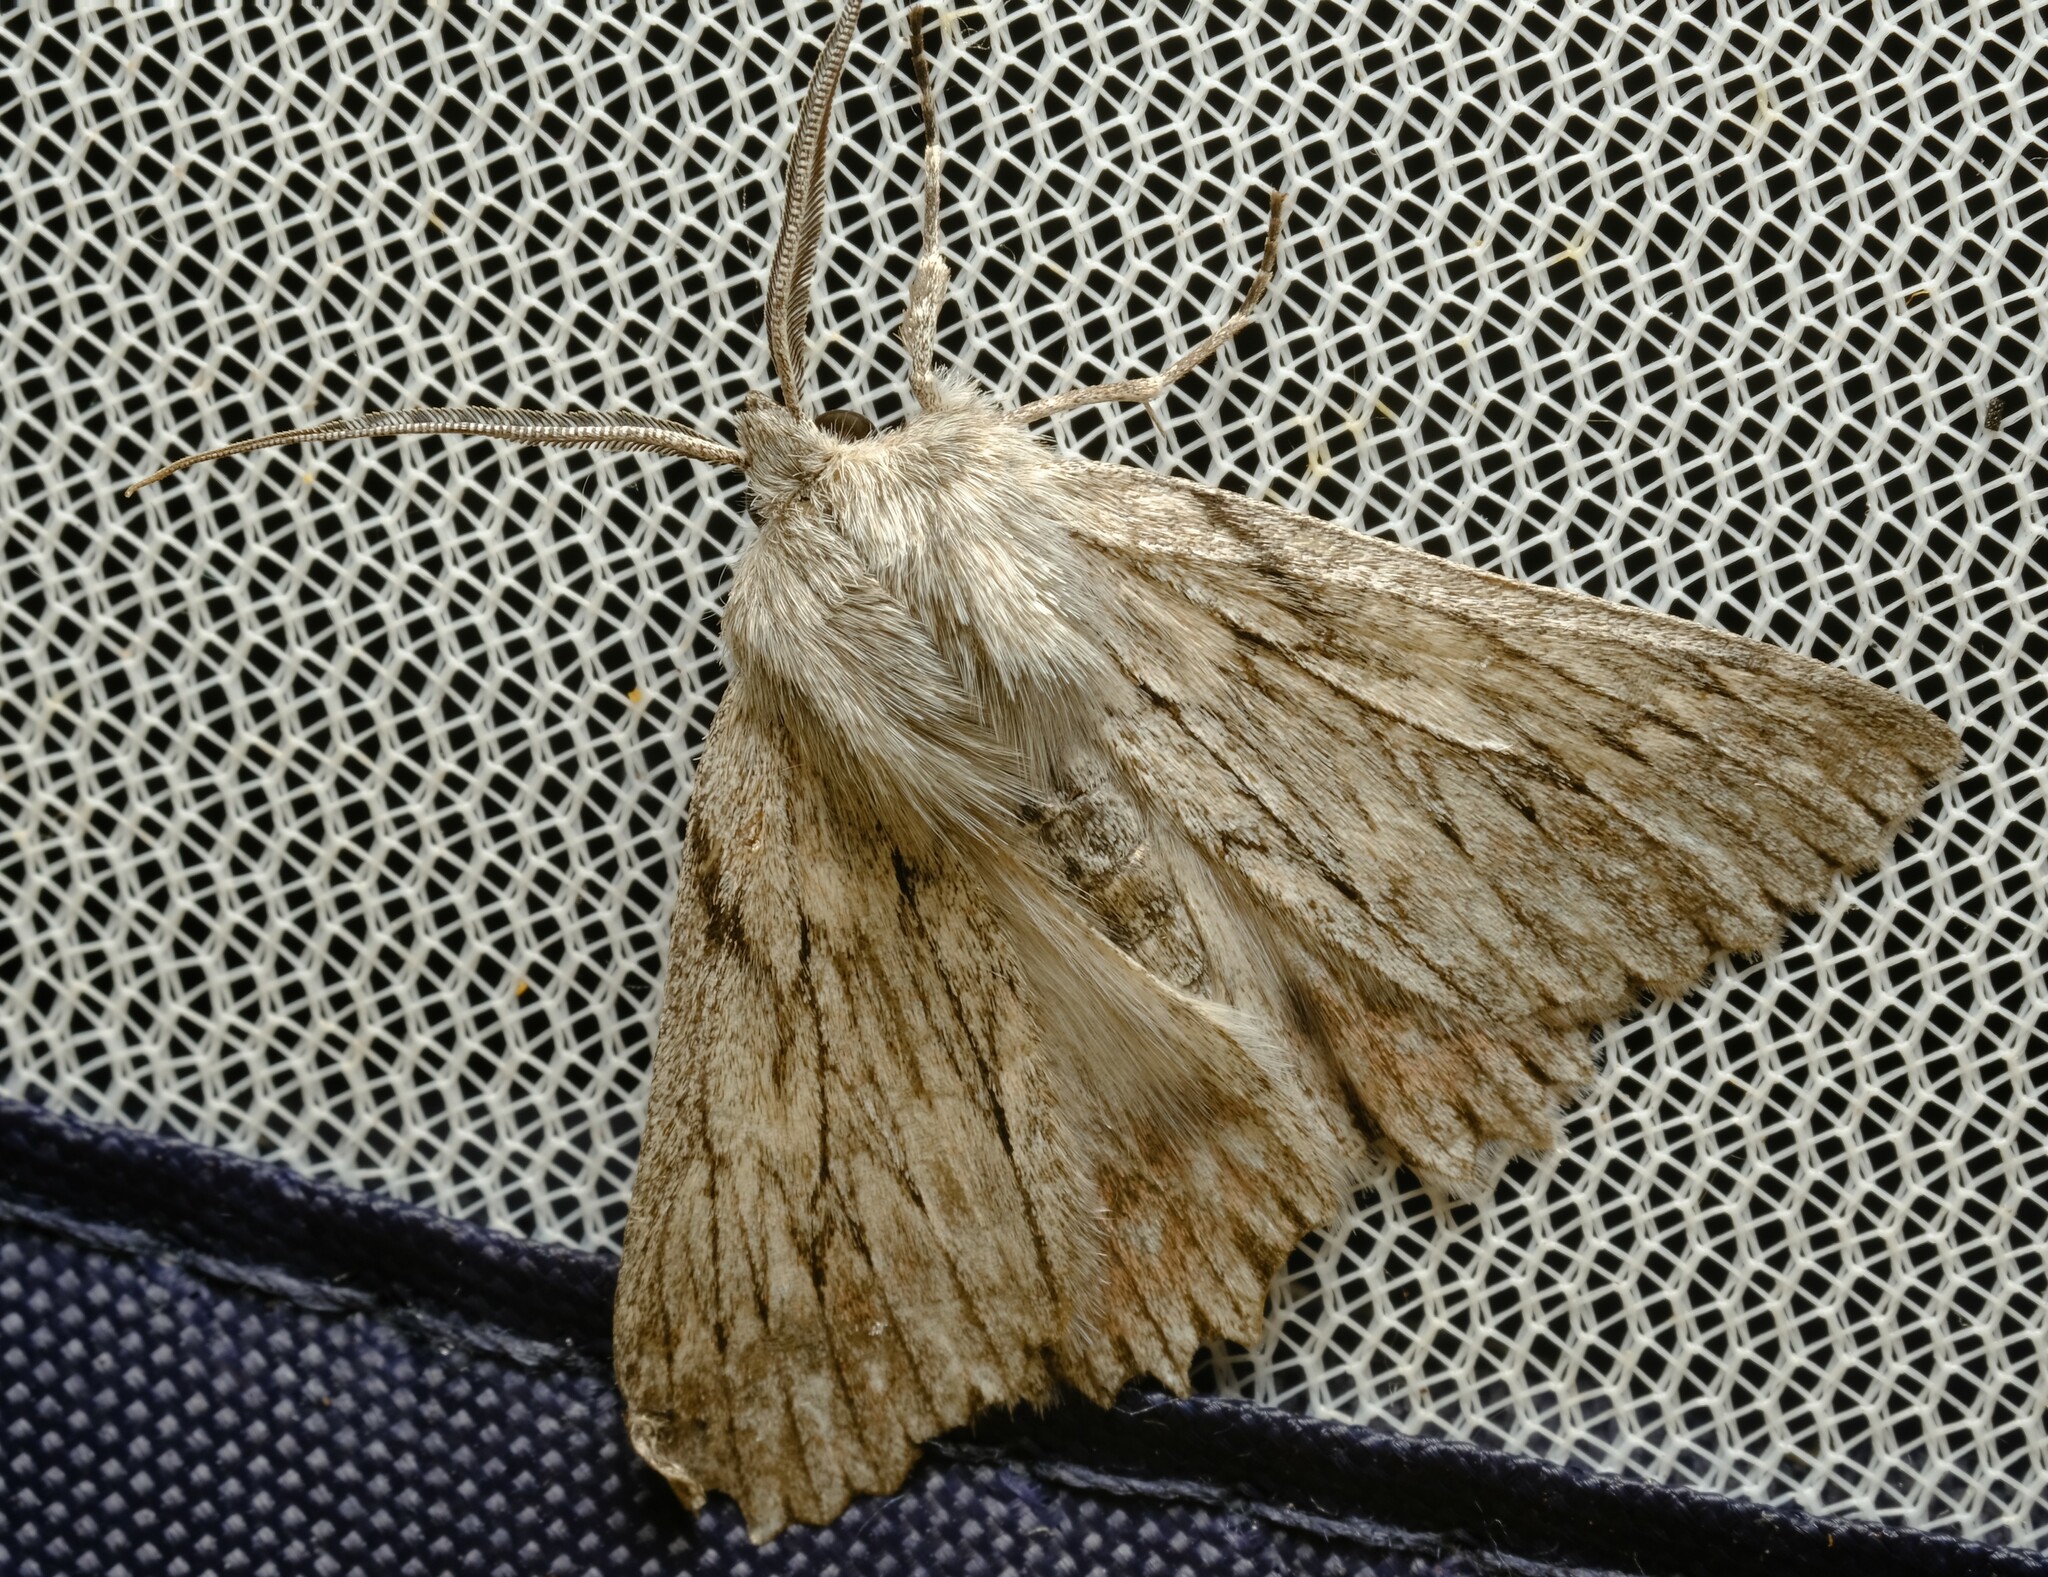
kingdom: Animalia
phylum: Arthropoda
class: Insecta
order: Lepidoptera
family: Geometridae
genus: Cyneoterpna
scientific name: Cyneoterpna wilsoni
